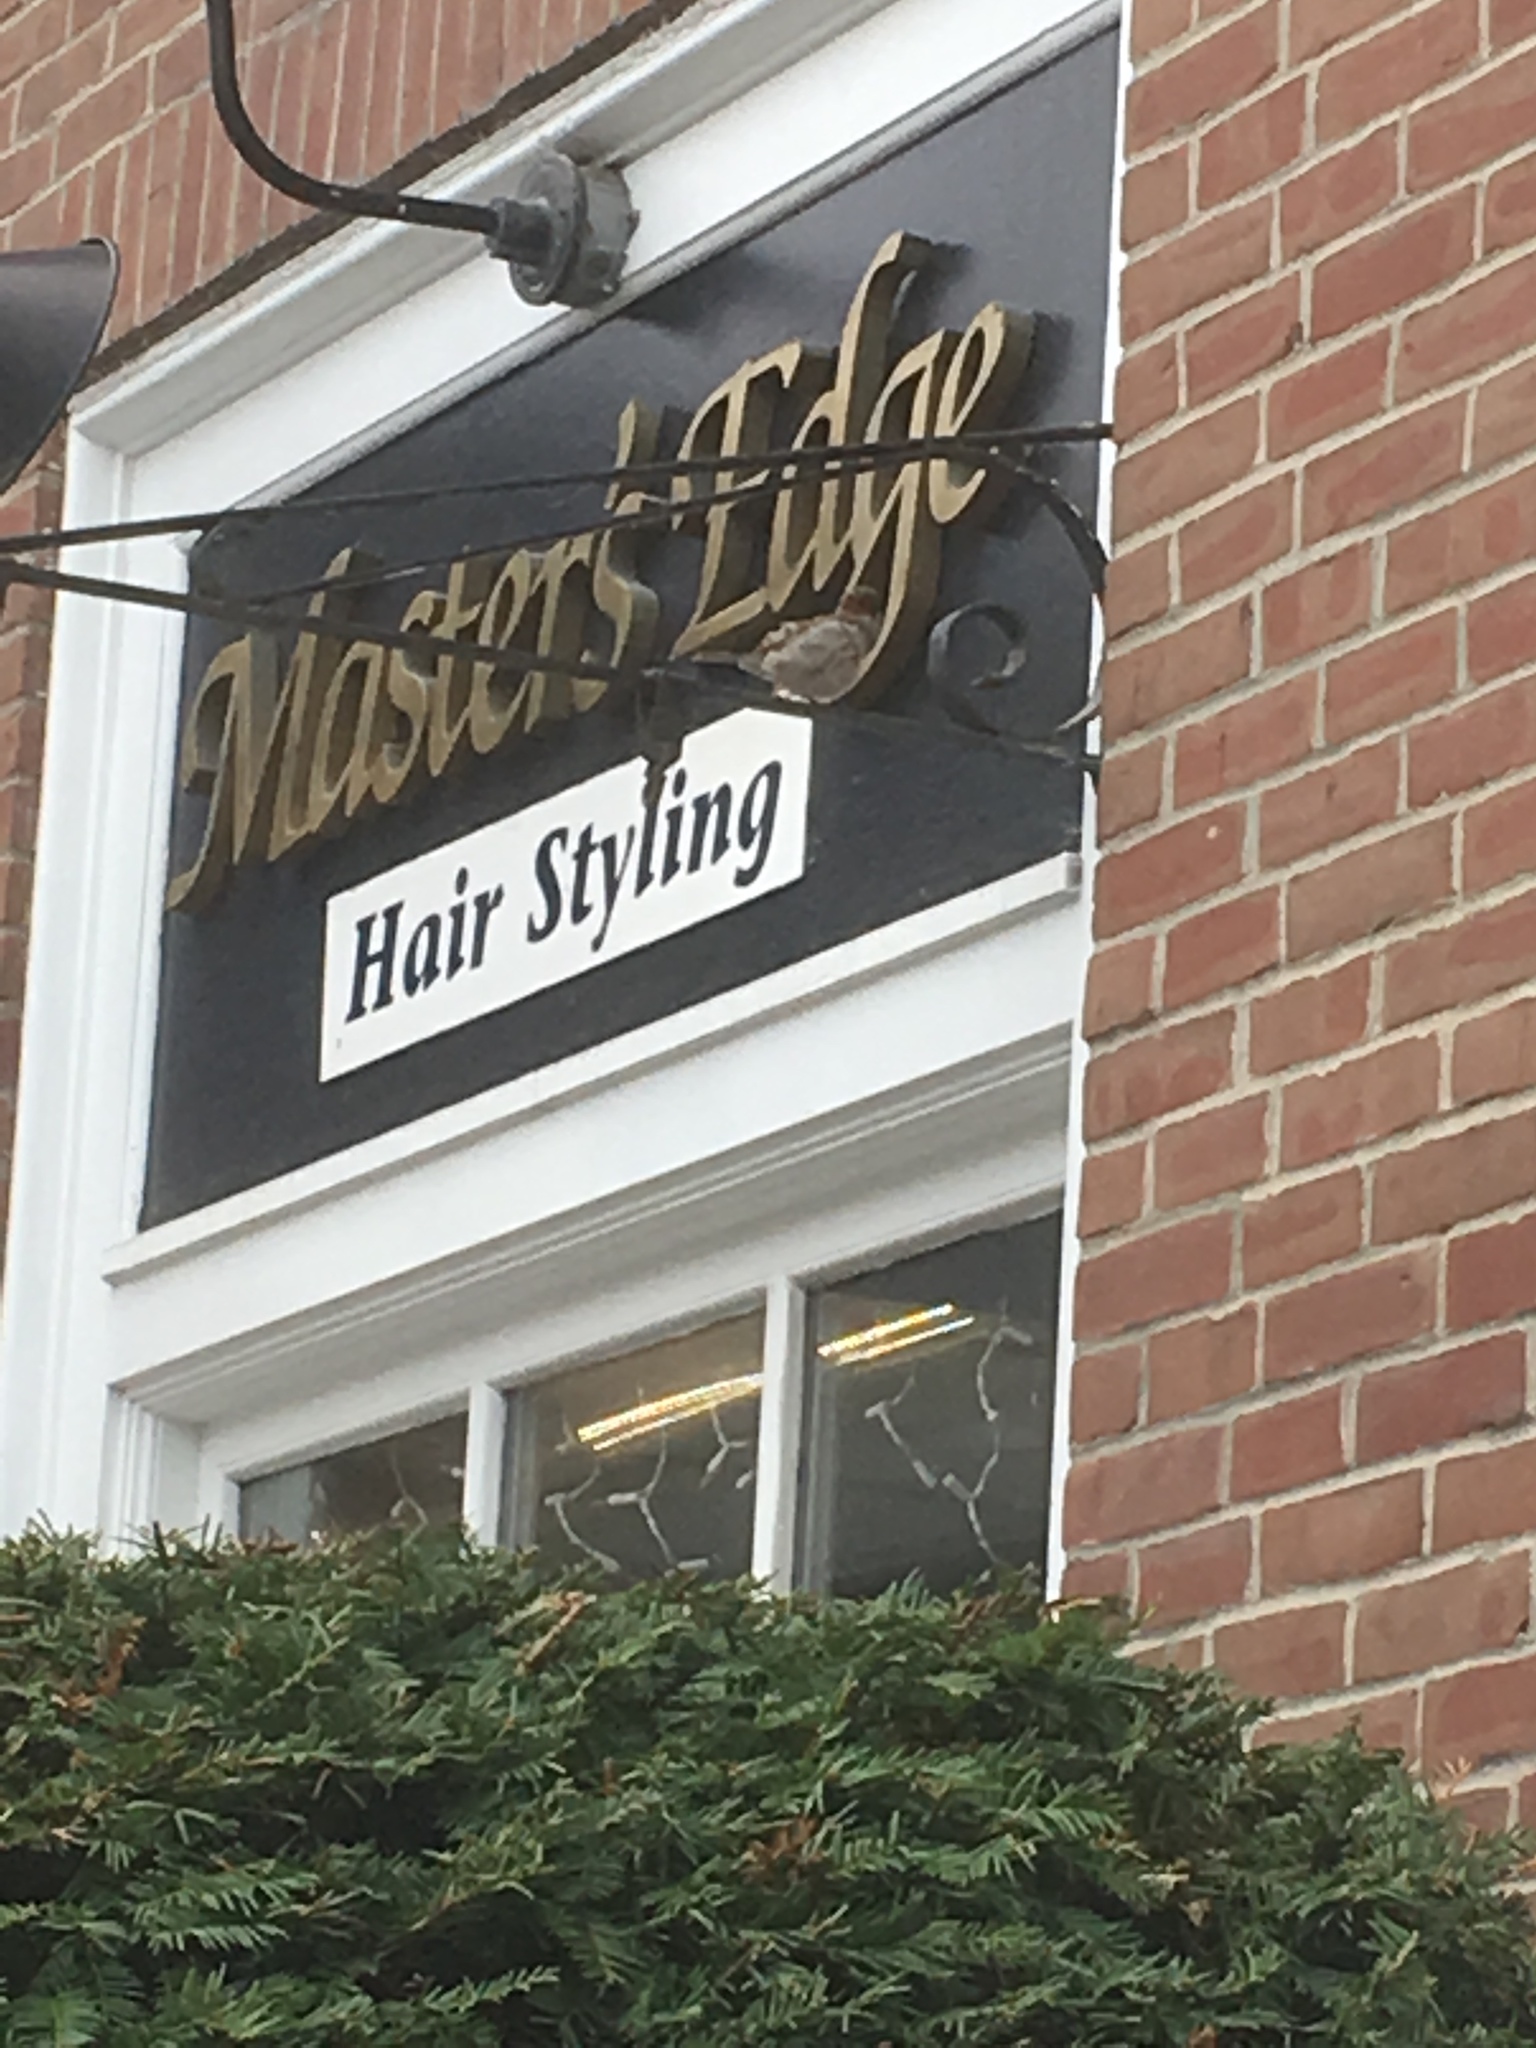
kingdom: Animalia
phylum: Chordata
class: Aves
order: Passeriformes
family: Passeridae
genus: Passer
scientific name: Passer domesticus
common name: House sparrow
